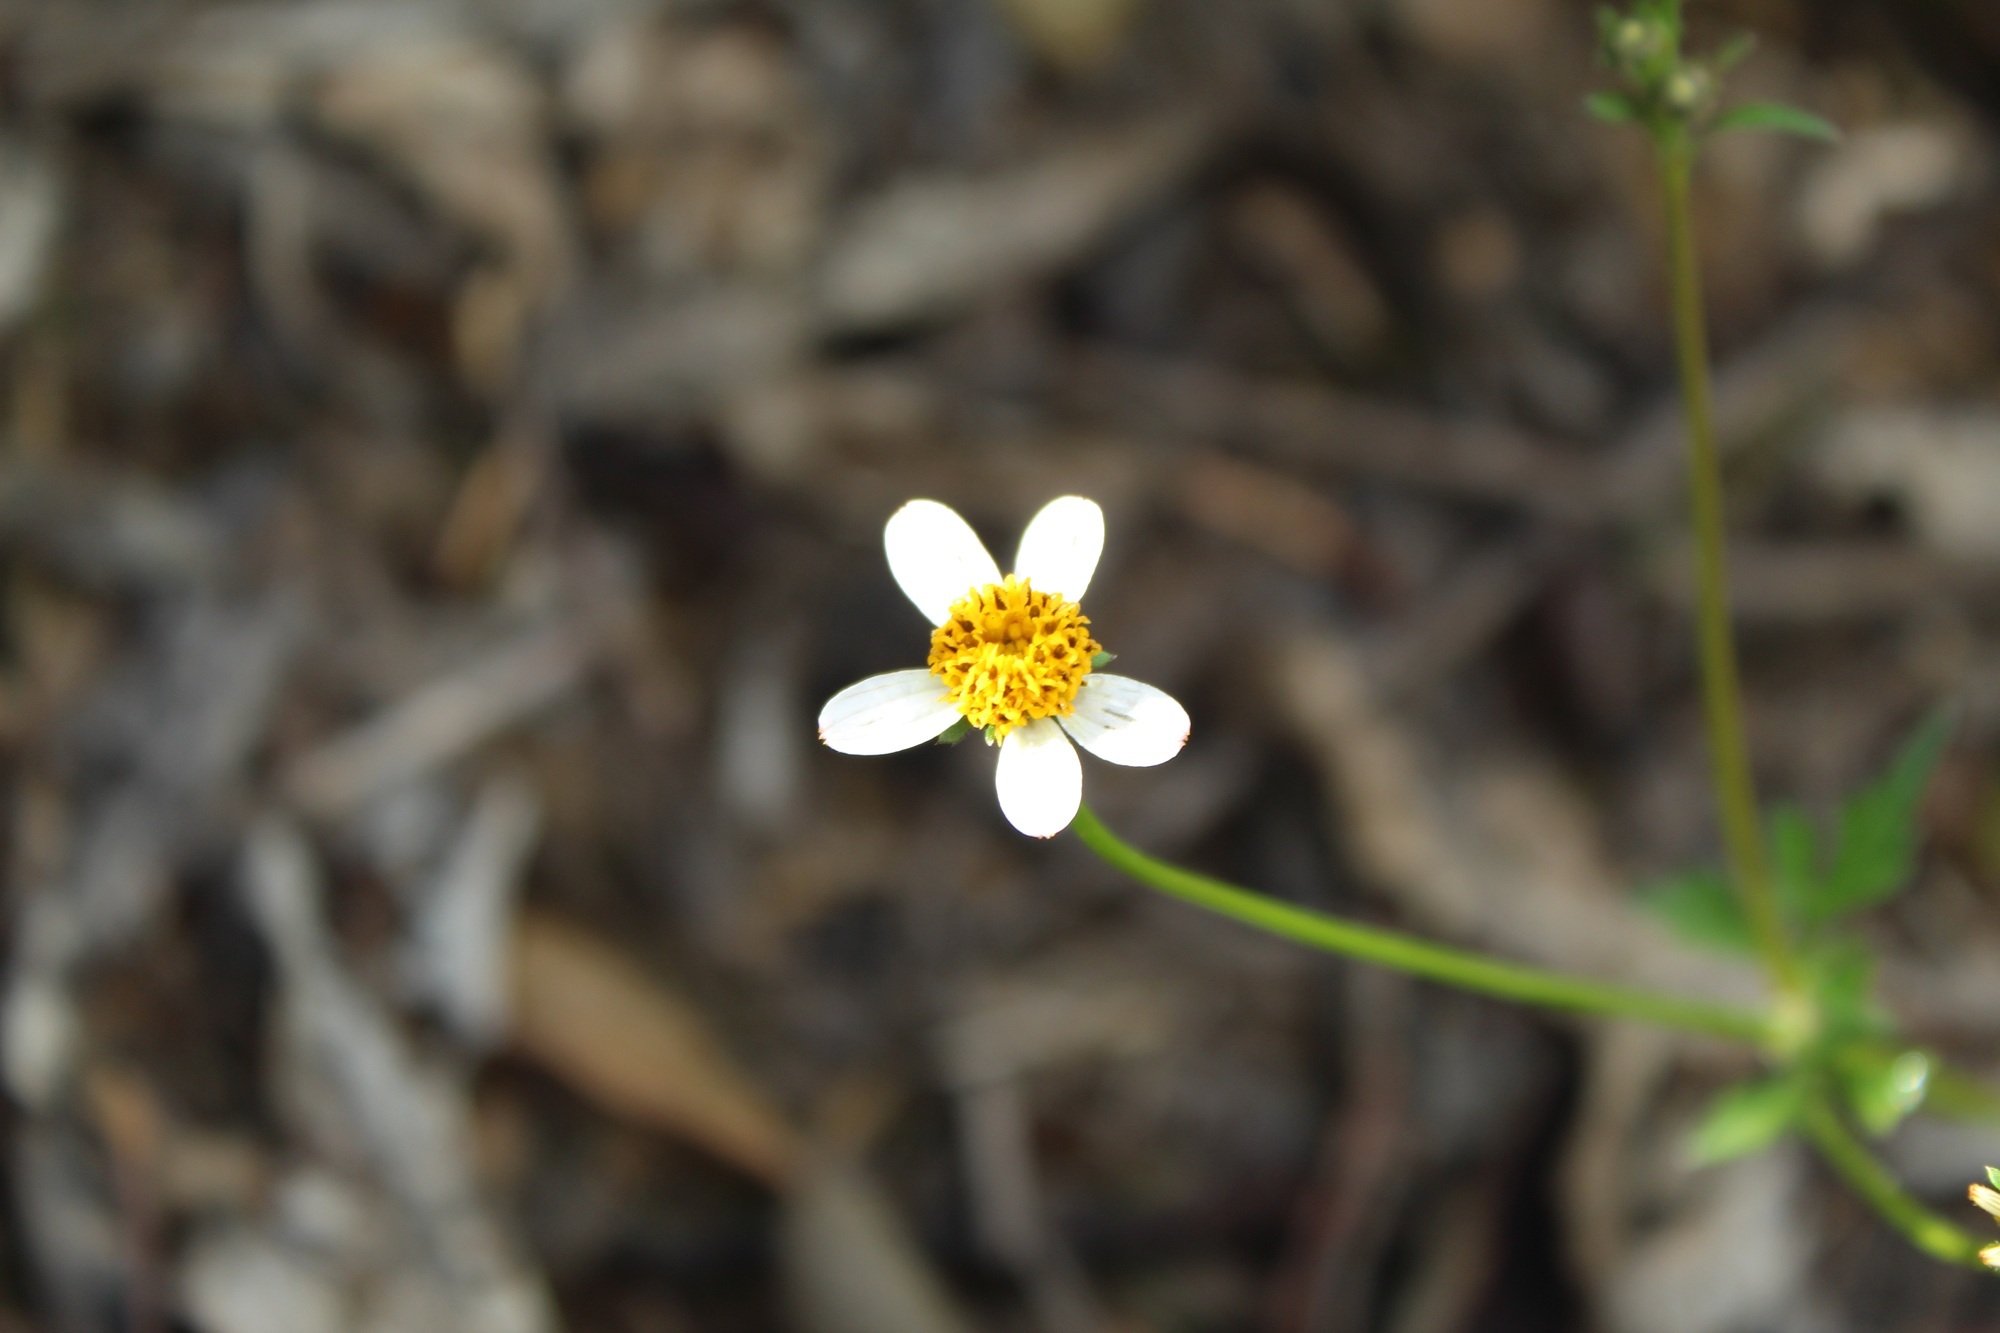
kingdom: Plantae
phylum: Tracheophyta
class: Magnoliopsida
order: Asterales
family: Asteraceae
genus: Bidens
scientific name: Bidens alba
